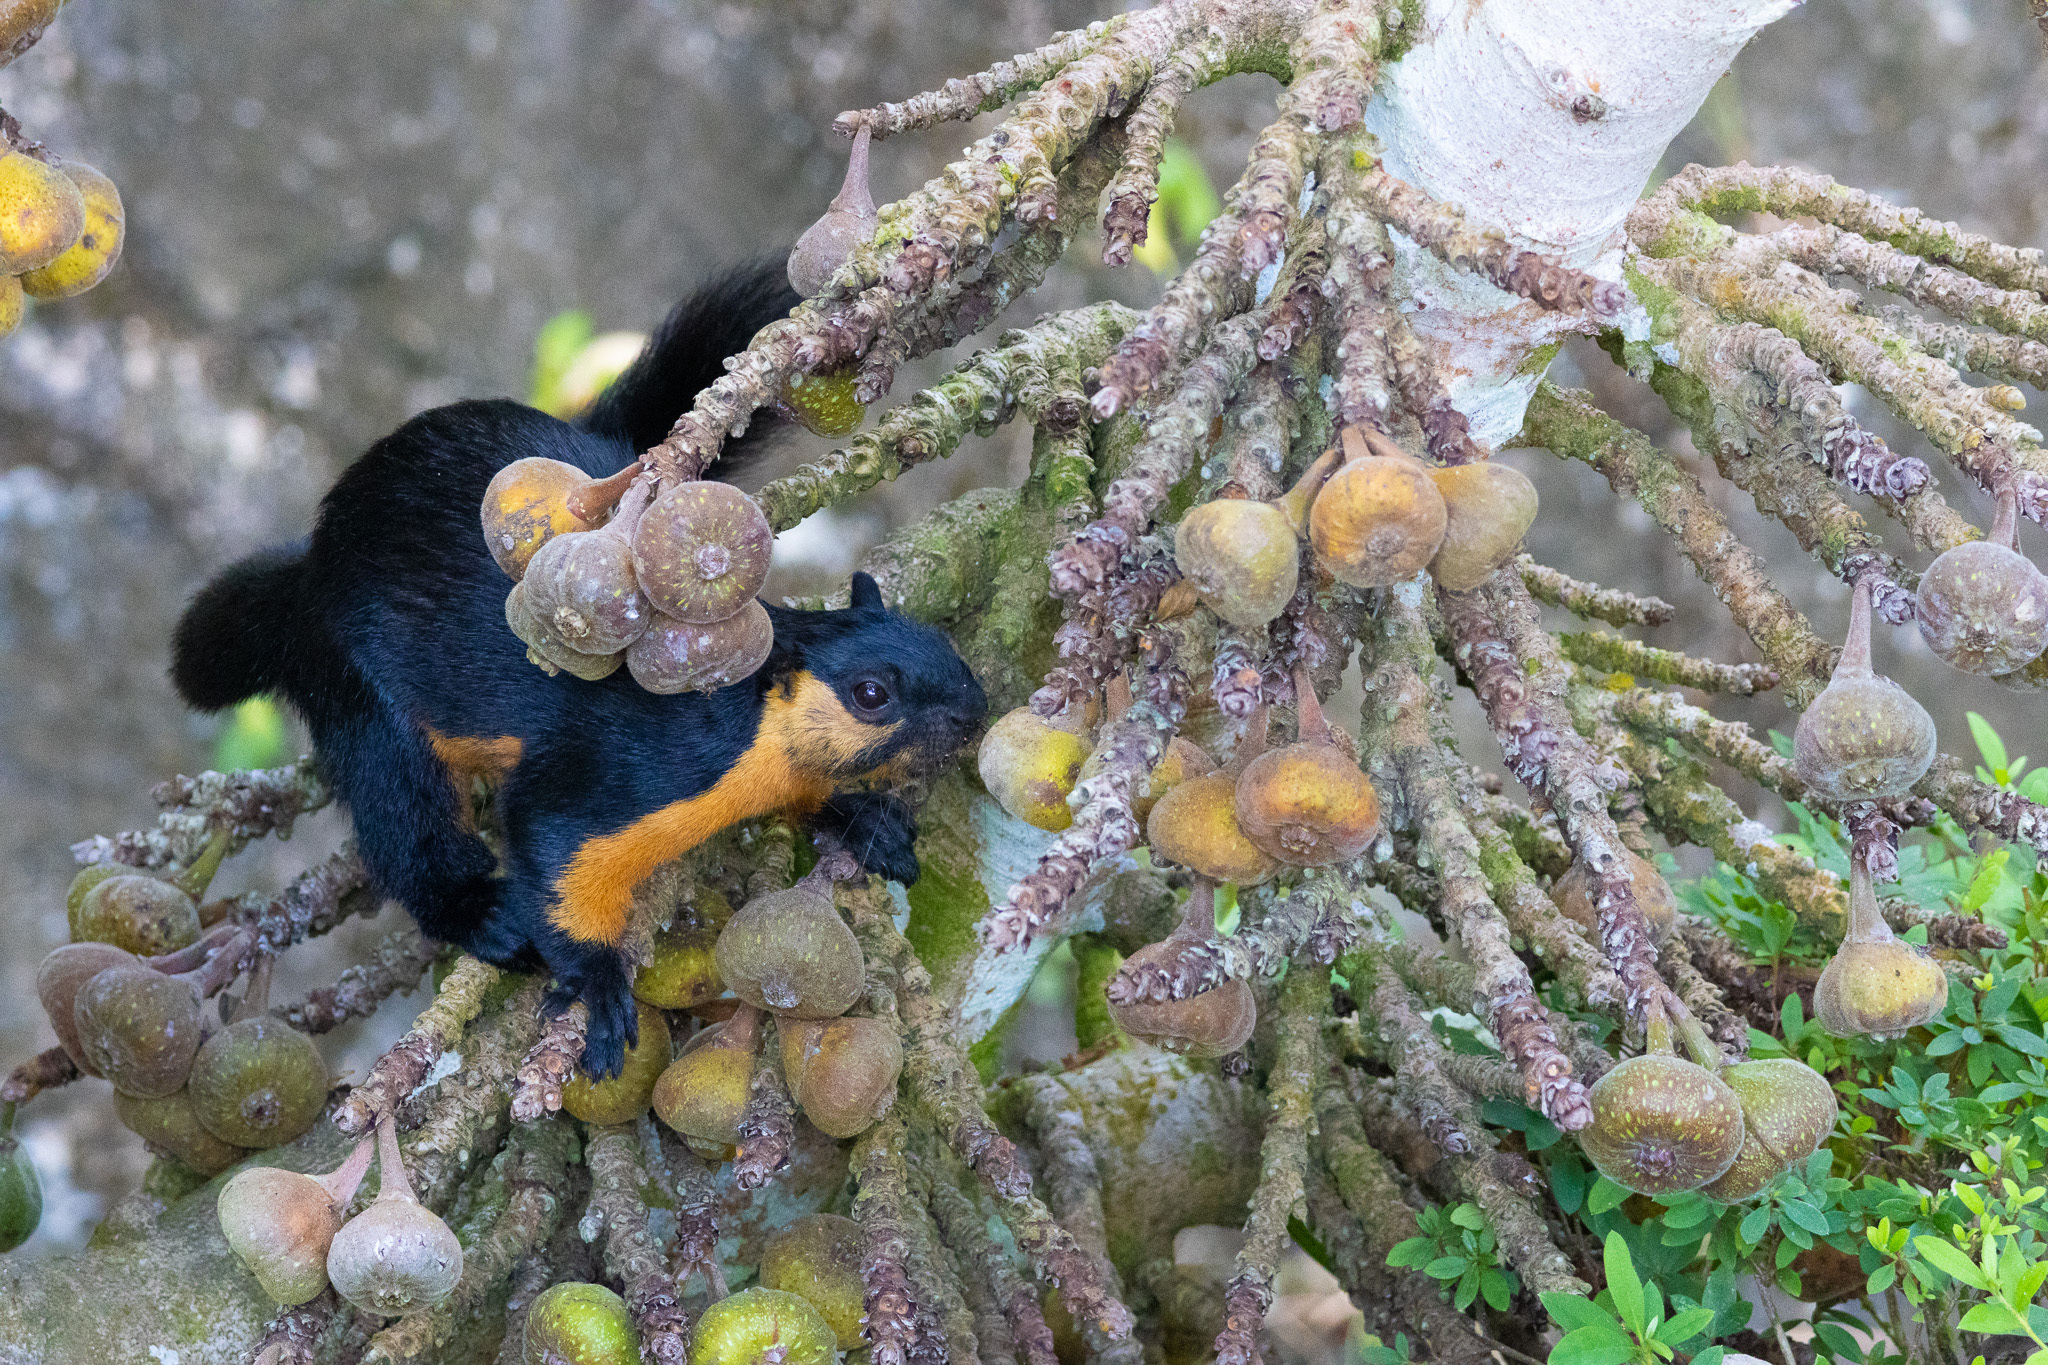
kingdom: Animalia
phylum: Chordata
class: Mammalia
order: Rodentia
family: Sciuridae
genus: Ratufa
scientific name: Ratufa bicolor
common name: Black giant squirrel
